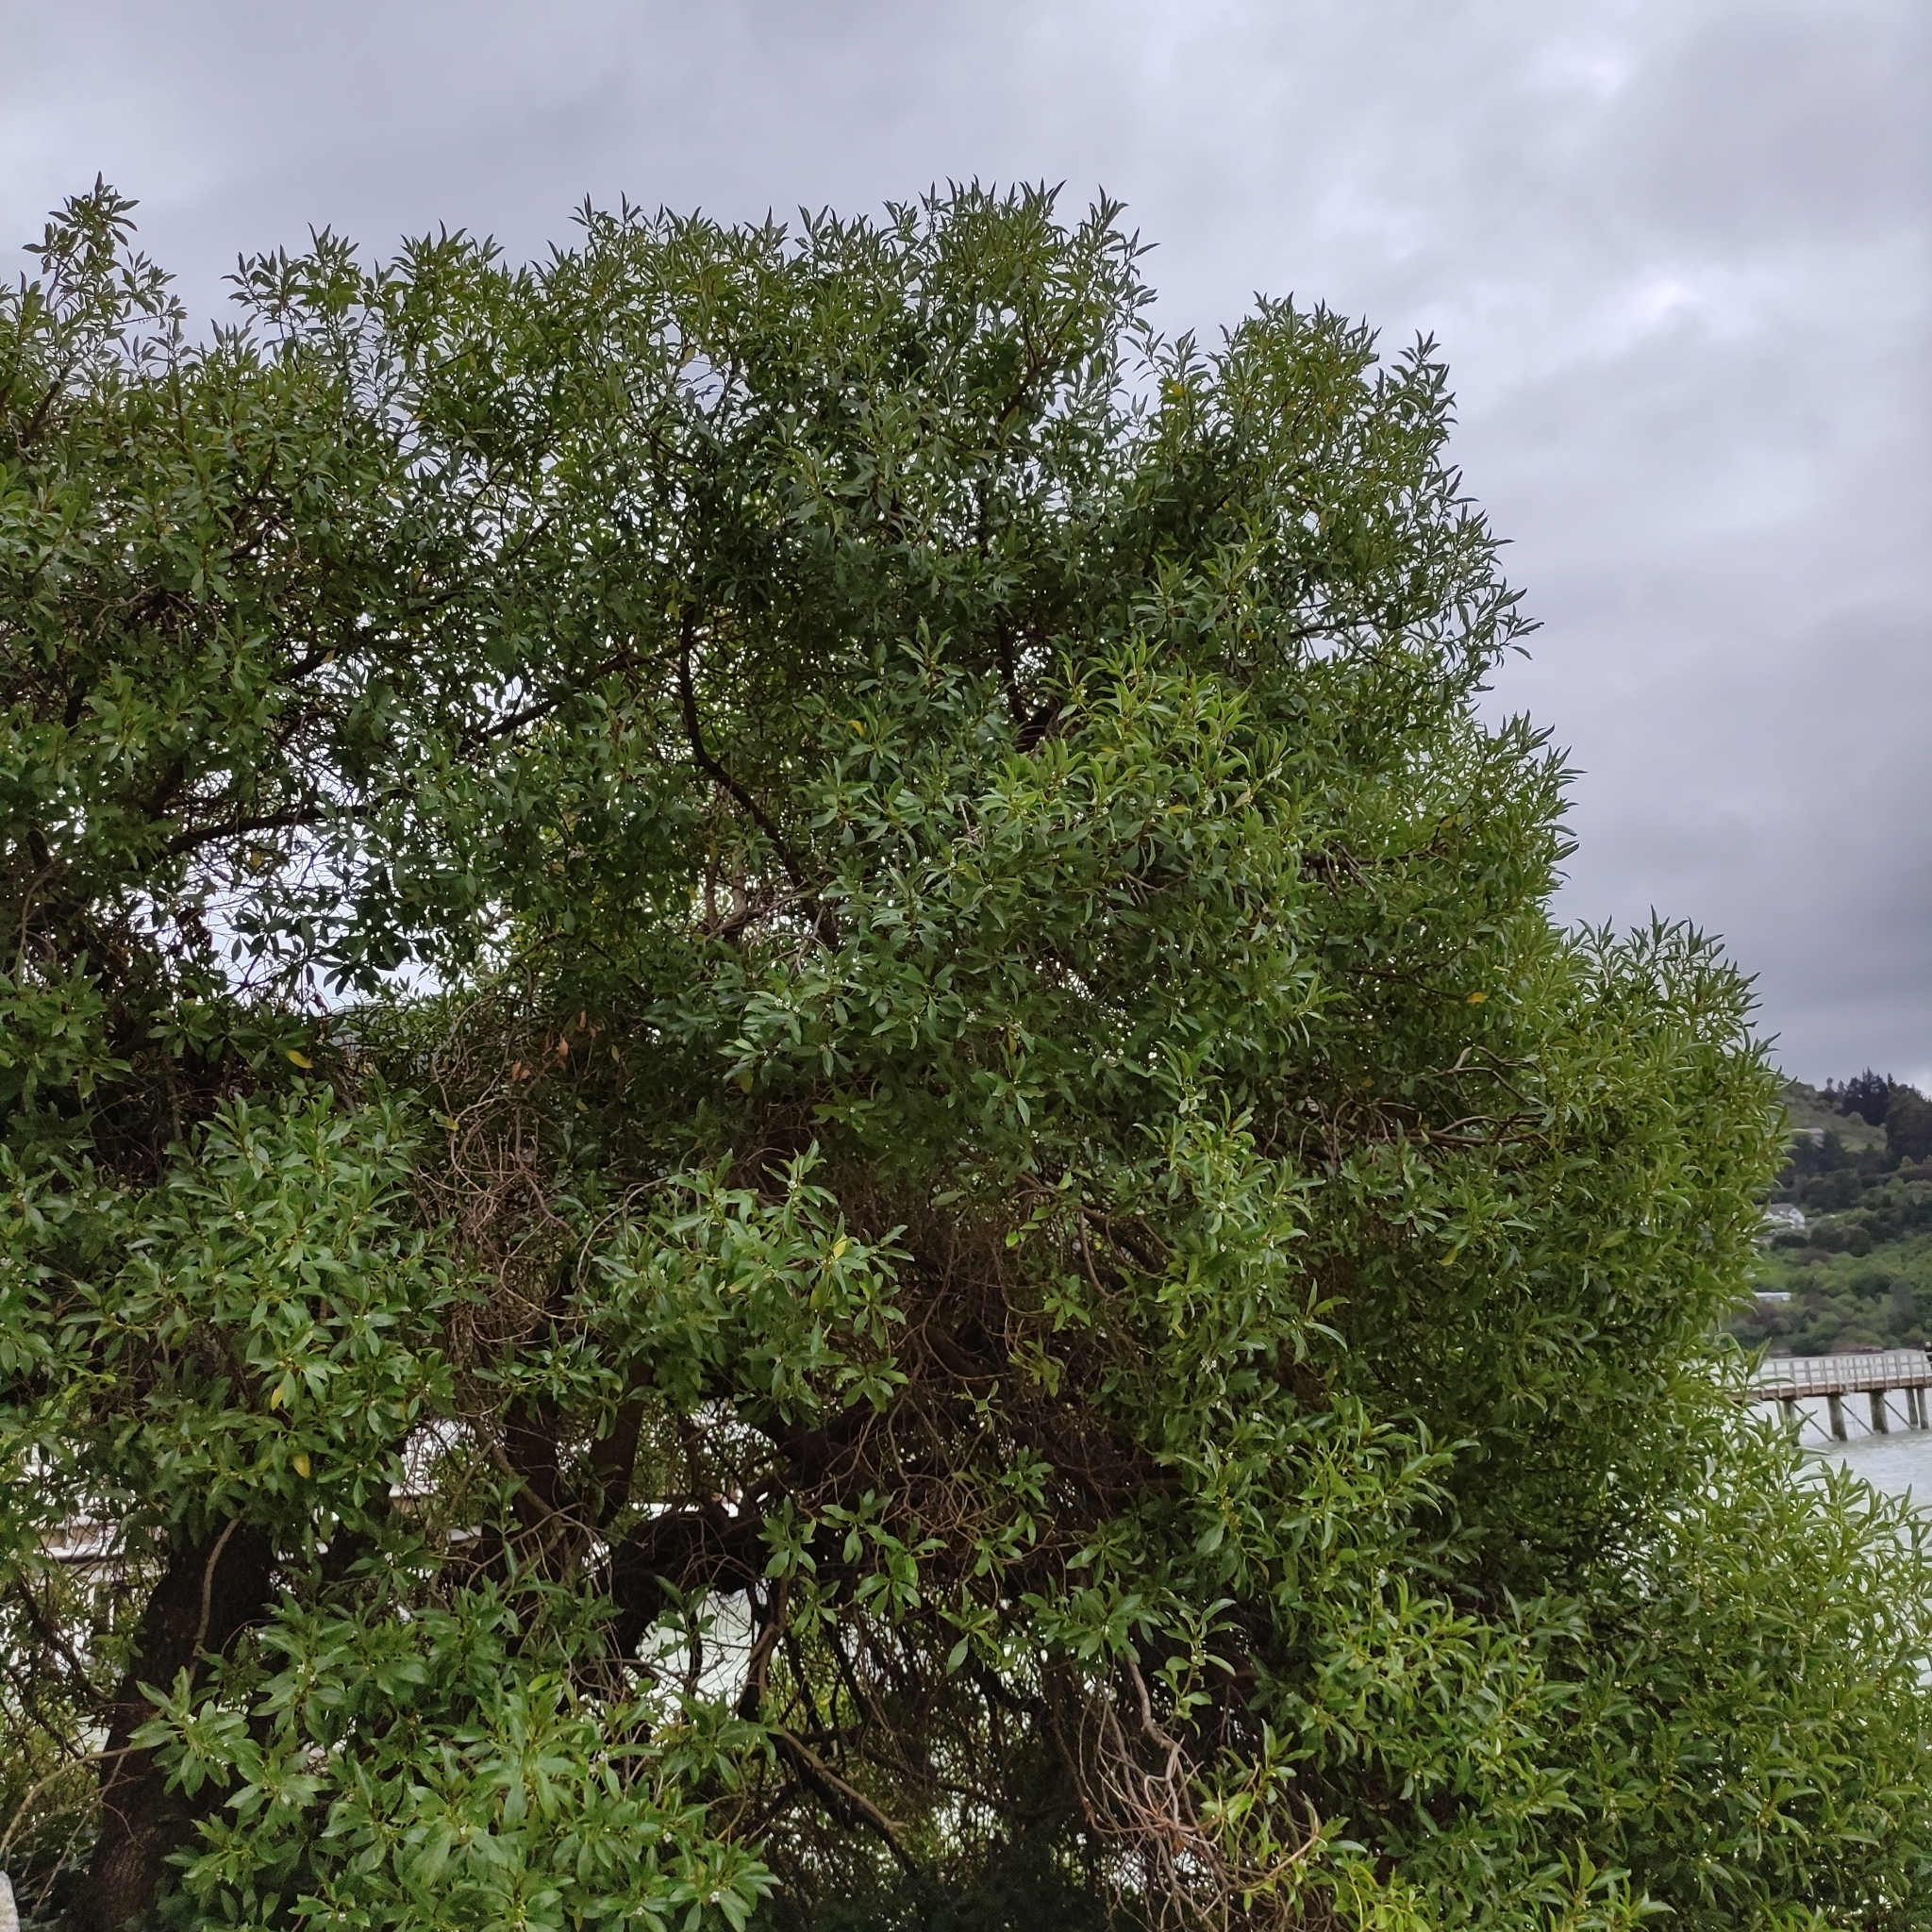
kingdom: Plantae
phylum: Tracheophyta
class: Magnoliopsida
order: Lamiales
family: Scrophulariaceae
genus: Myoporum
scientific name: Myoporum laetum
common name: Ngaio tree
